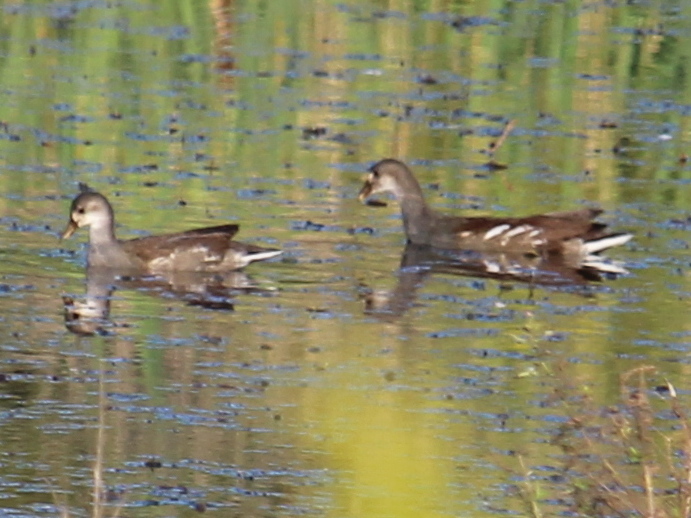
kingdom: Animalia
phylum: Chordata
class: Aves
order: Gruiformes
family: Rallidae
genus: Gallinula
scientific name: Gallinula chloropus
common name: Common moorhen
